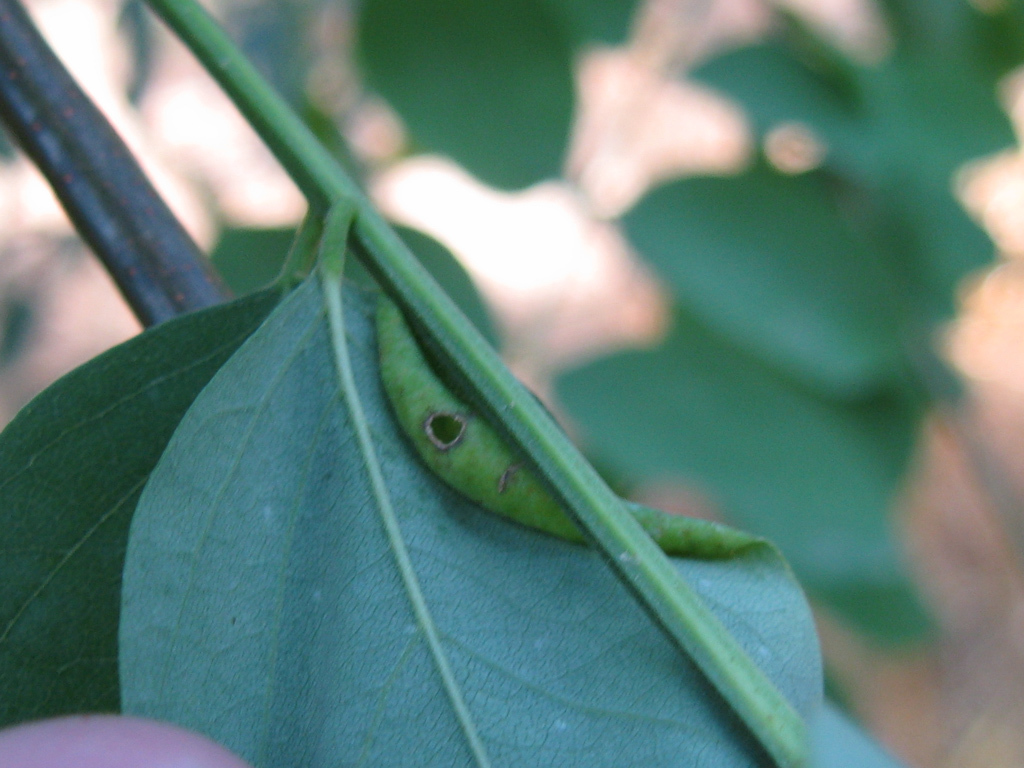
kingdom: Animalia
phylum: Arthropoda
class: Insecta
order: Diptera
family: Cecidomyiidae
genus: Obolodiplosis
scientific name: Obolodiplosis robiniae
